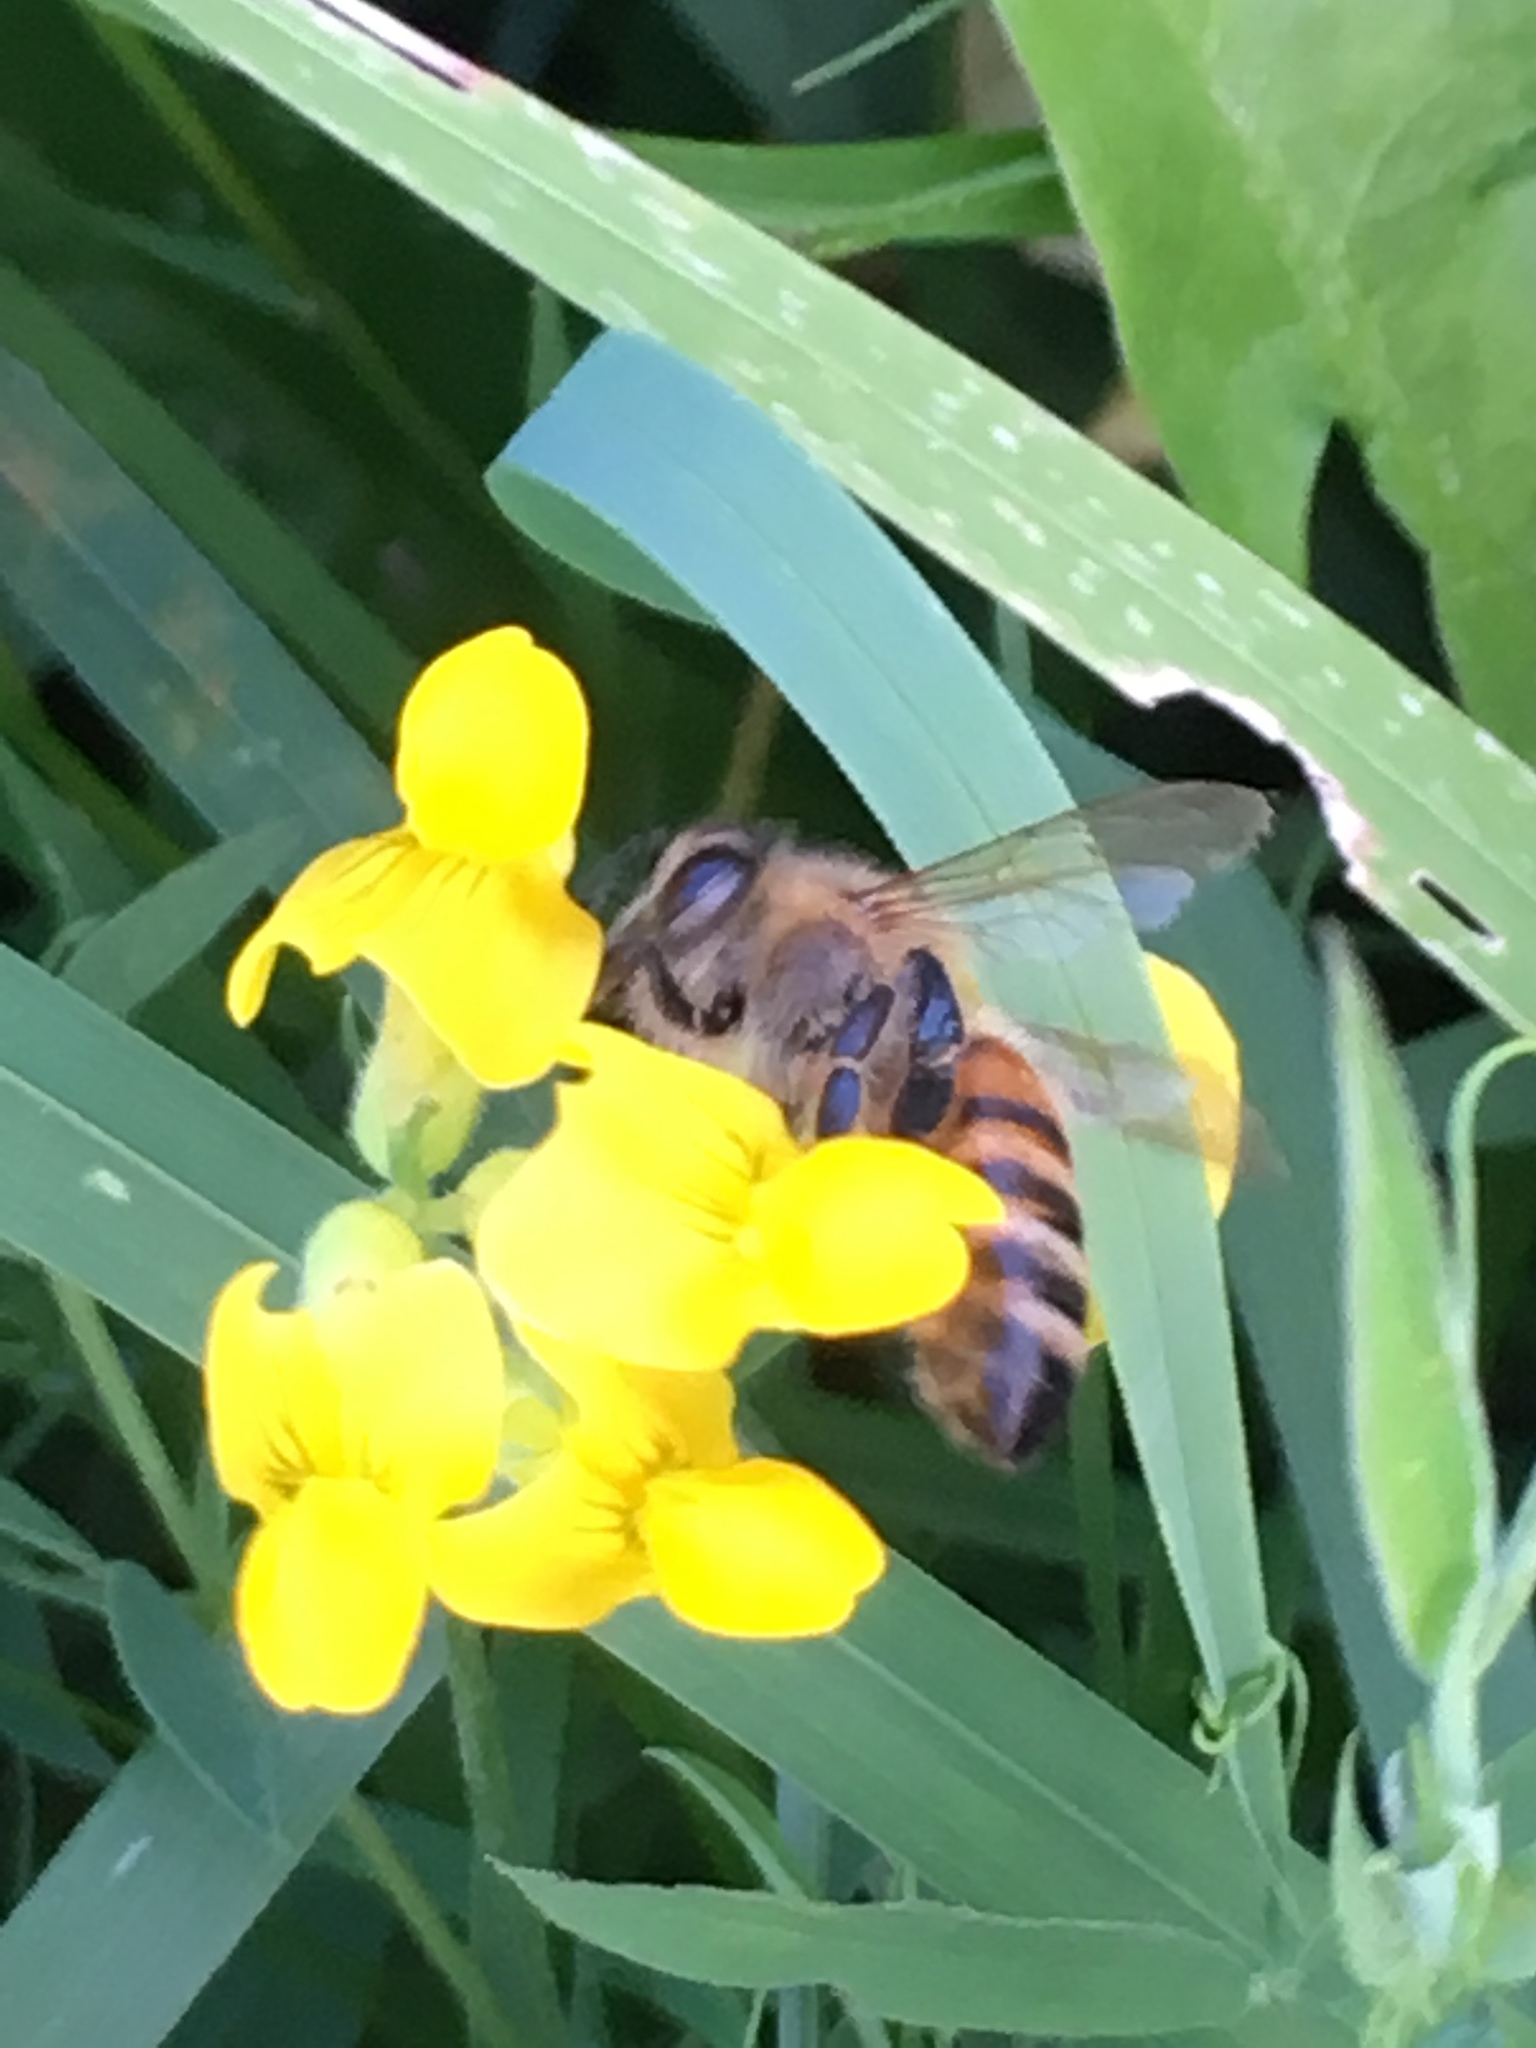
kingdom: Animalia
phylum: Arthropoda
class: Insecta
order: Hymenoptera
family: Apidae
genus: Apis
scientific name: Apis mellifera
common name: Honey bee
